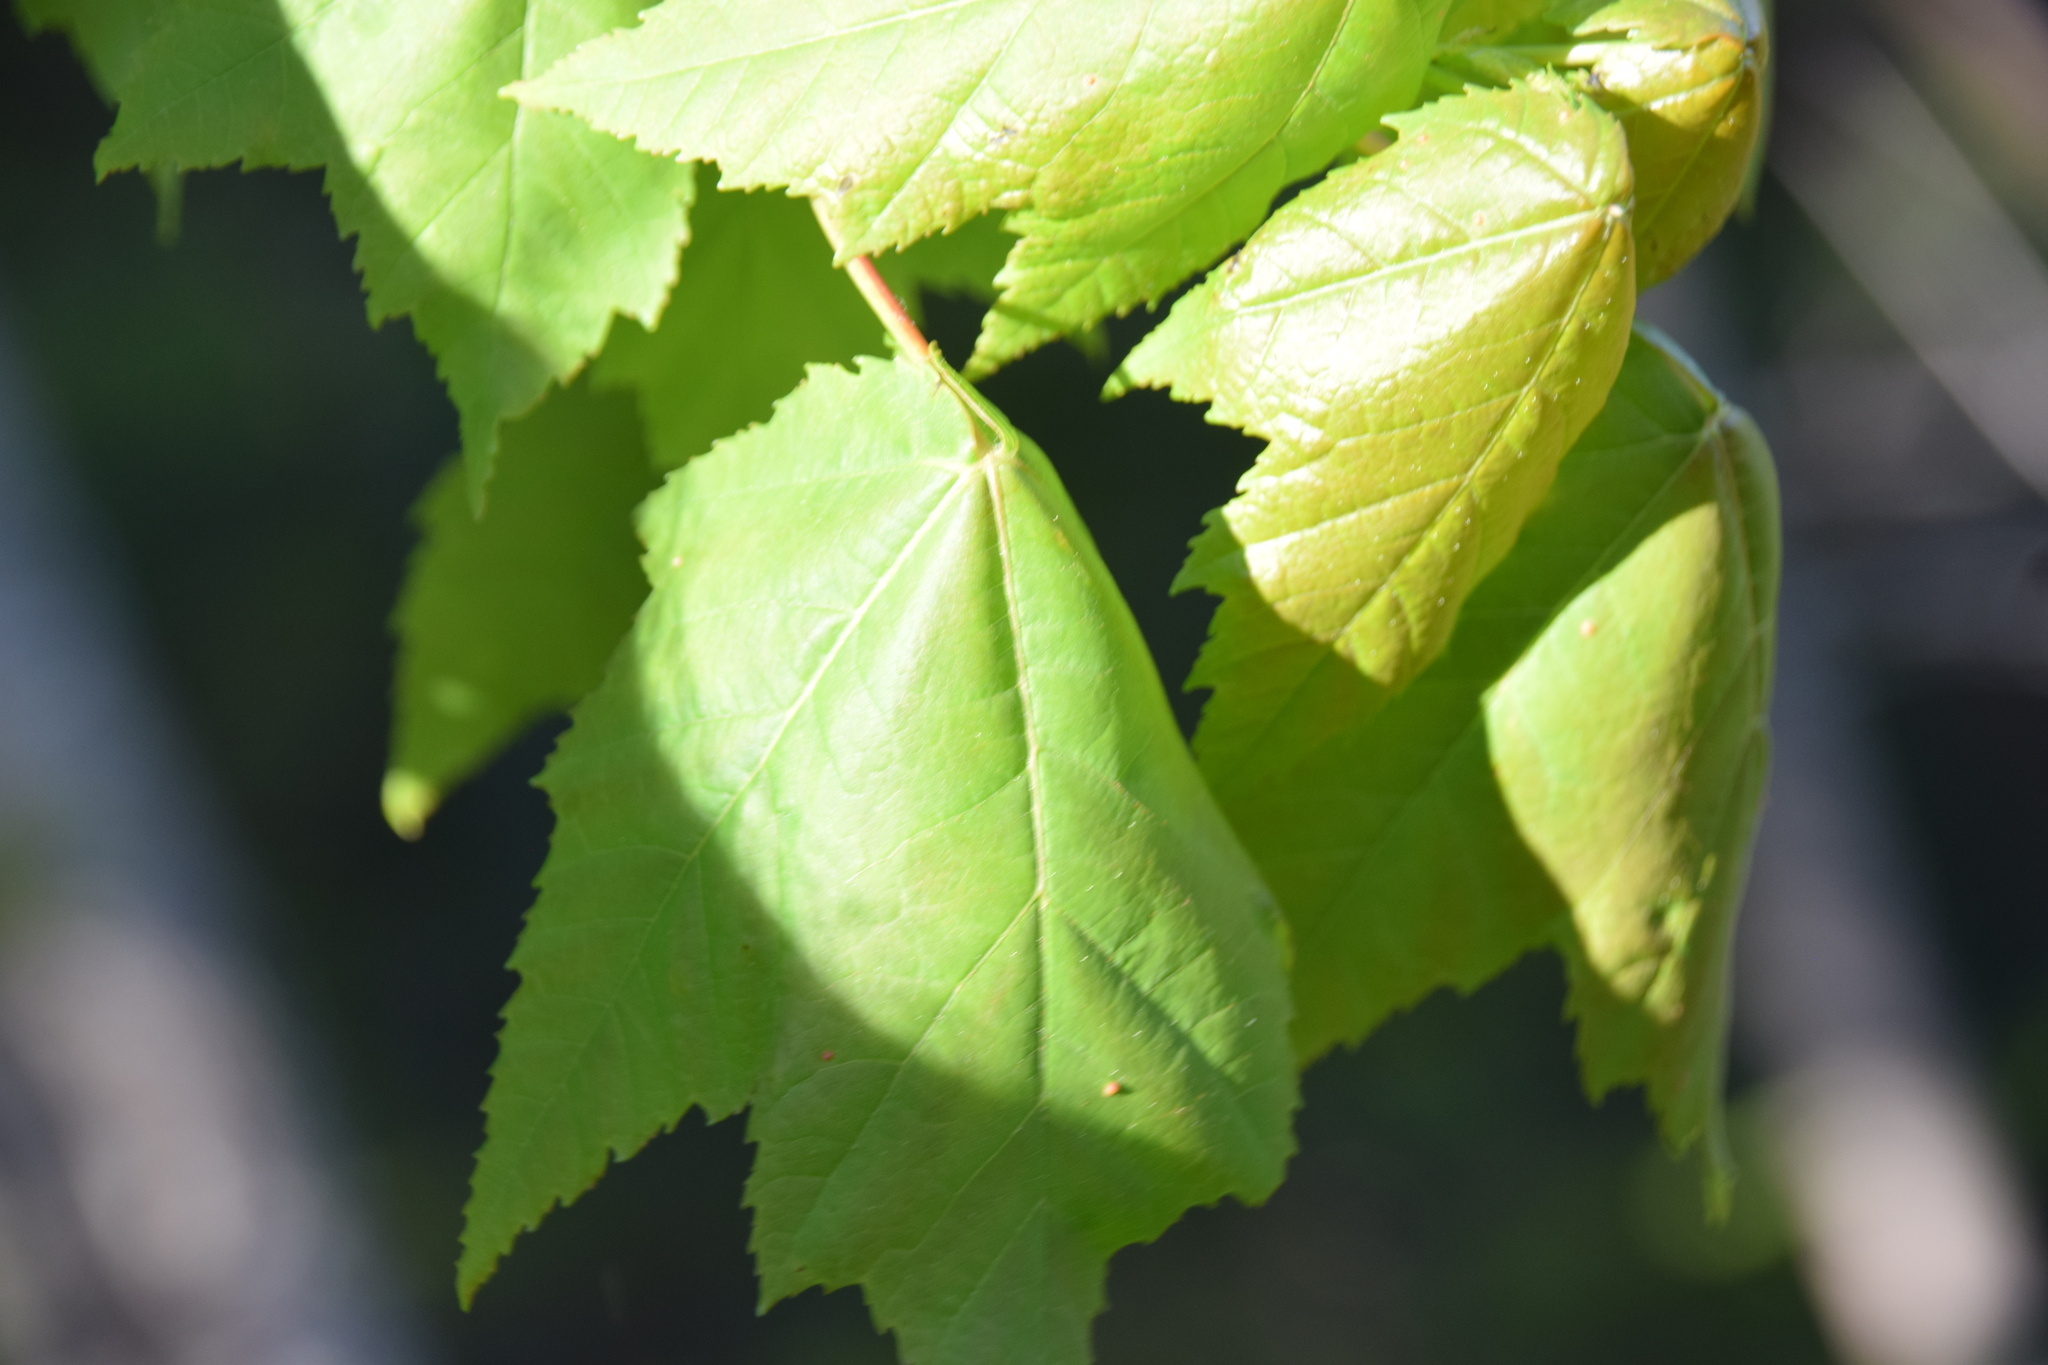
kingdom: Plantae
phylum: Tracheophyta
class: Magnoliopsida
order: Sapindales
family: Sapindaceae
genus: Acer
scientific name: Acer rubrum
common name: Red maple
